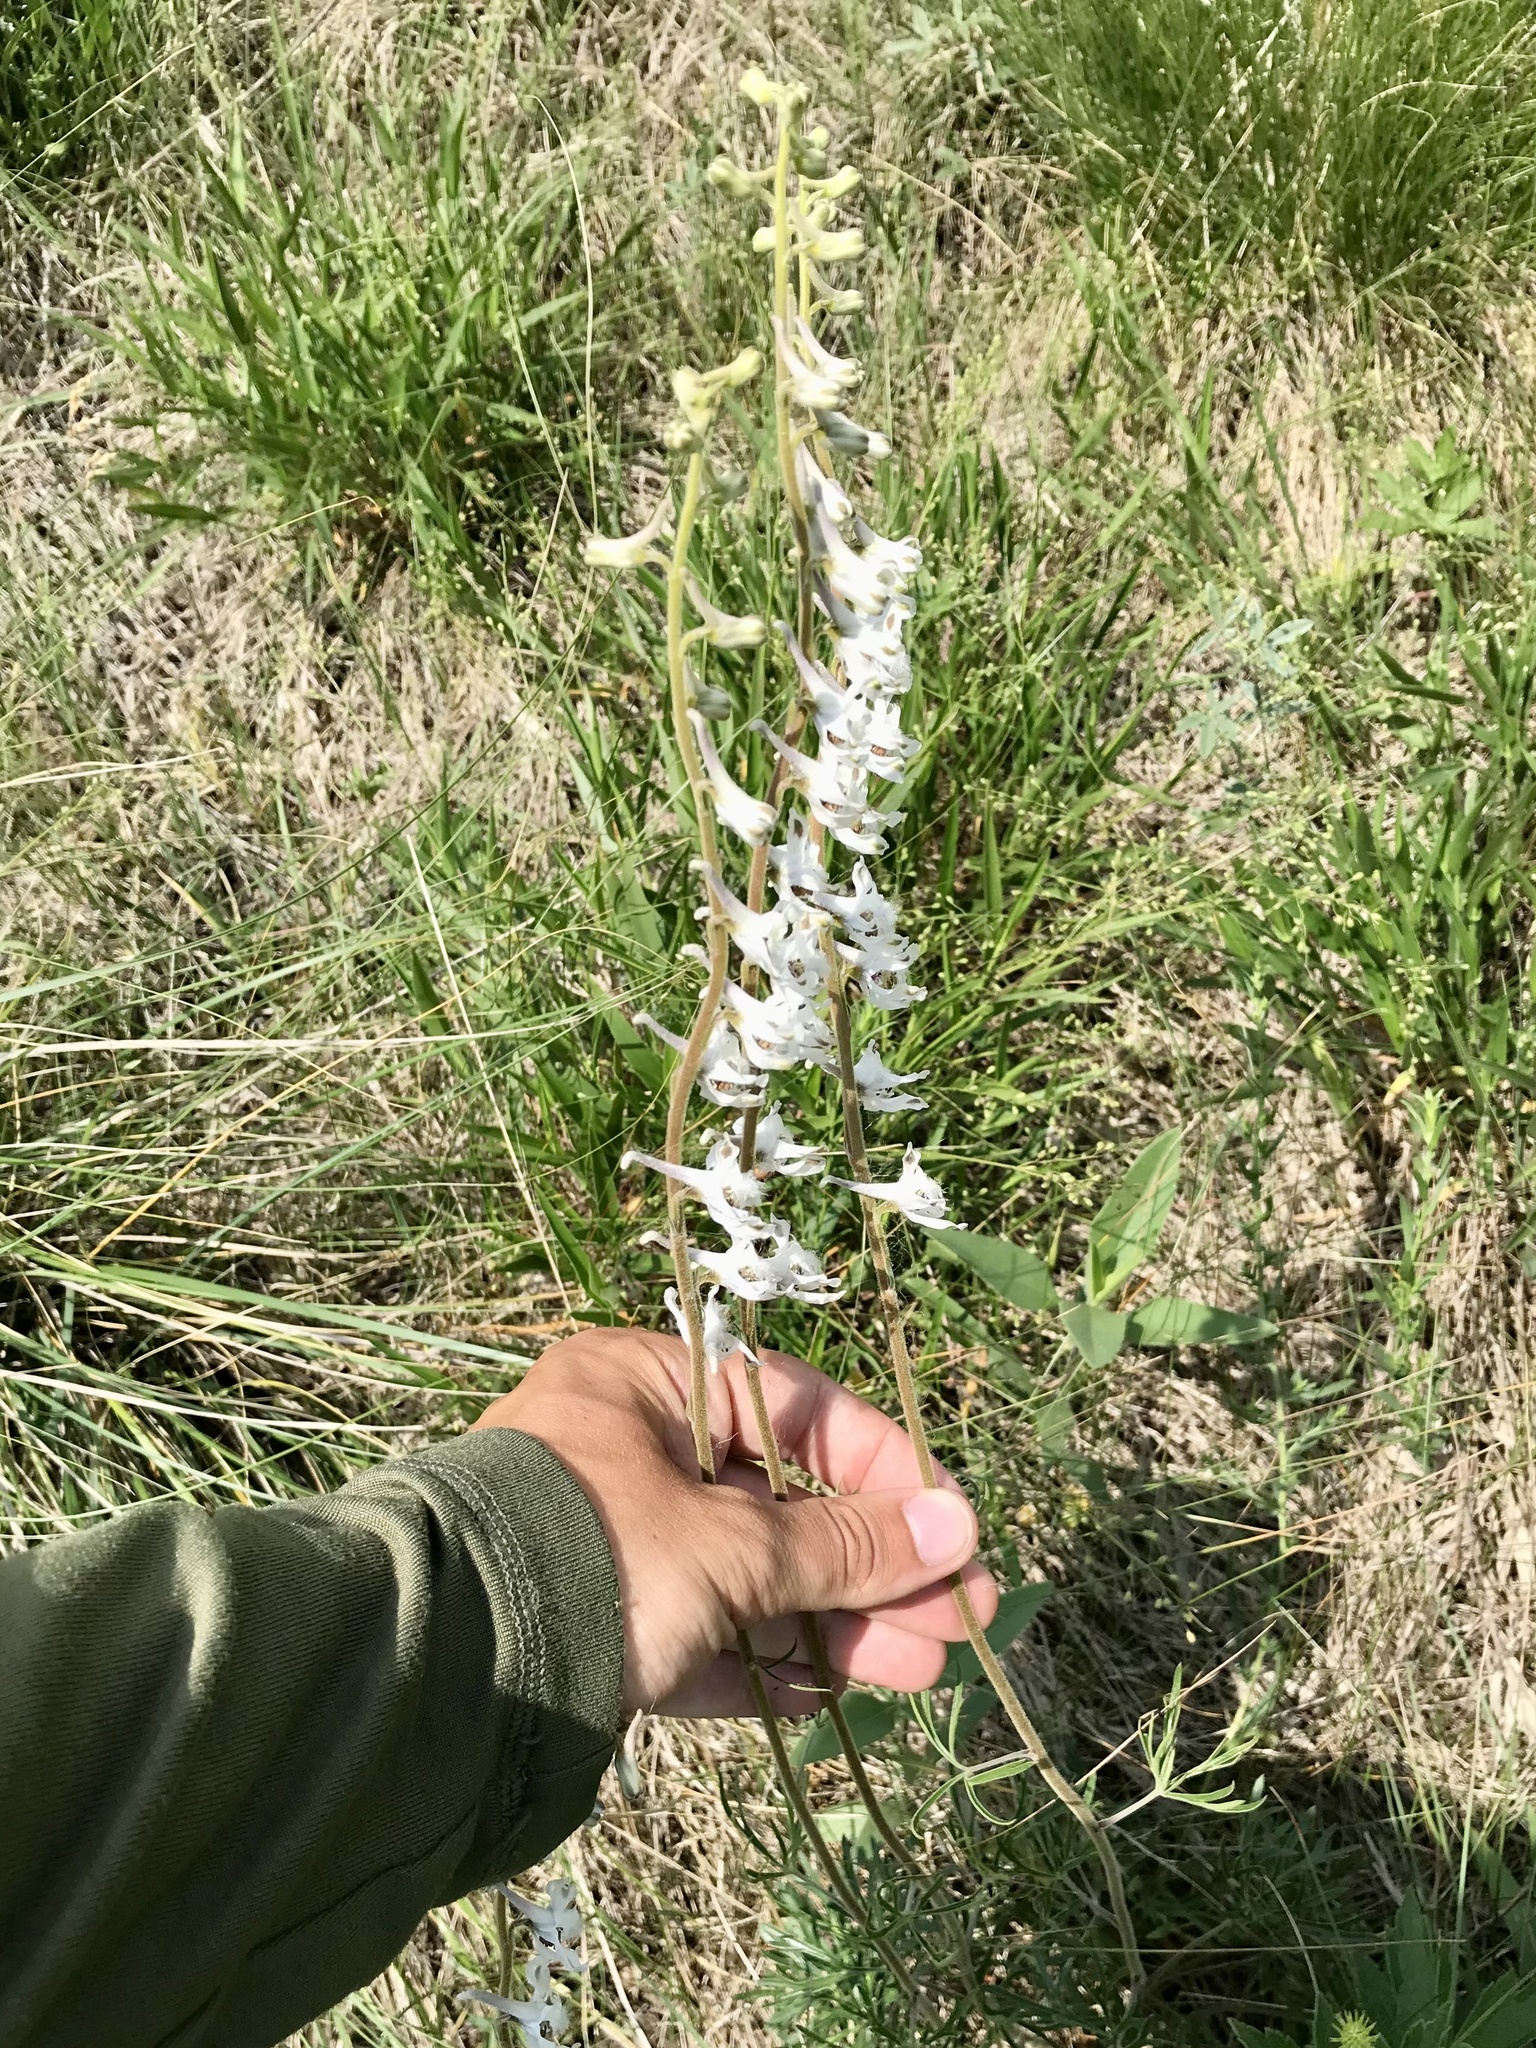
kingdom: Plantae
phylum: Tracheophyta
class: Magnoliopsida
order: Ranunculales
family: Ranunculaceae
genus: Delphinium
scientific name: Delphinium carolinianum
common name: Carolina larkspur
